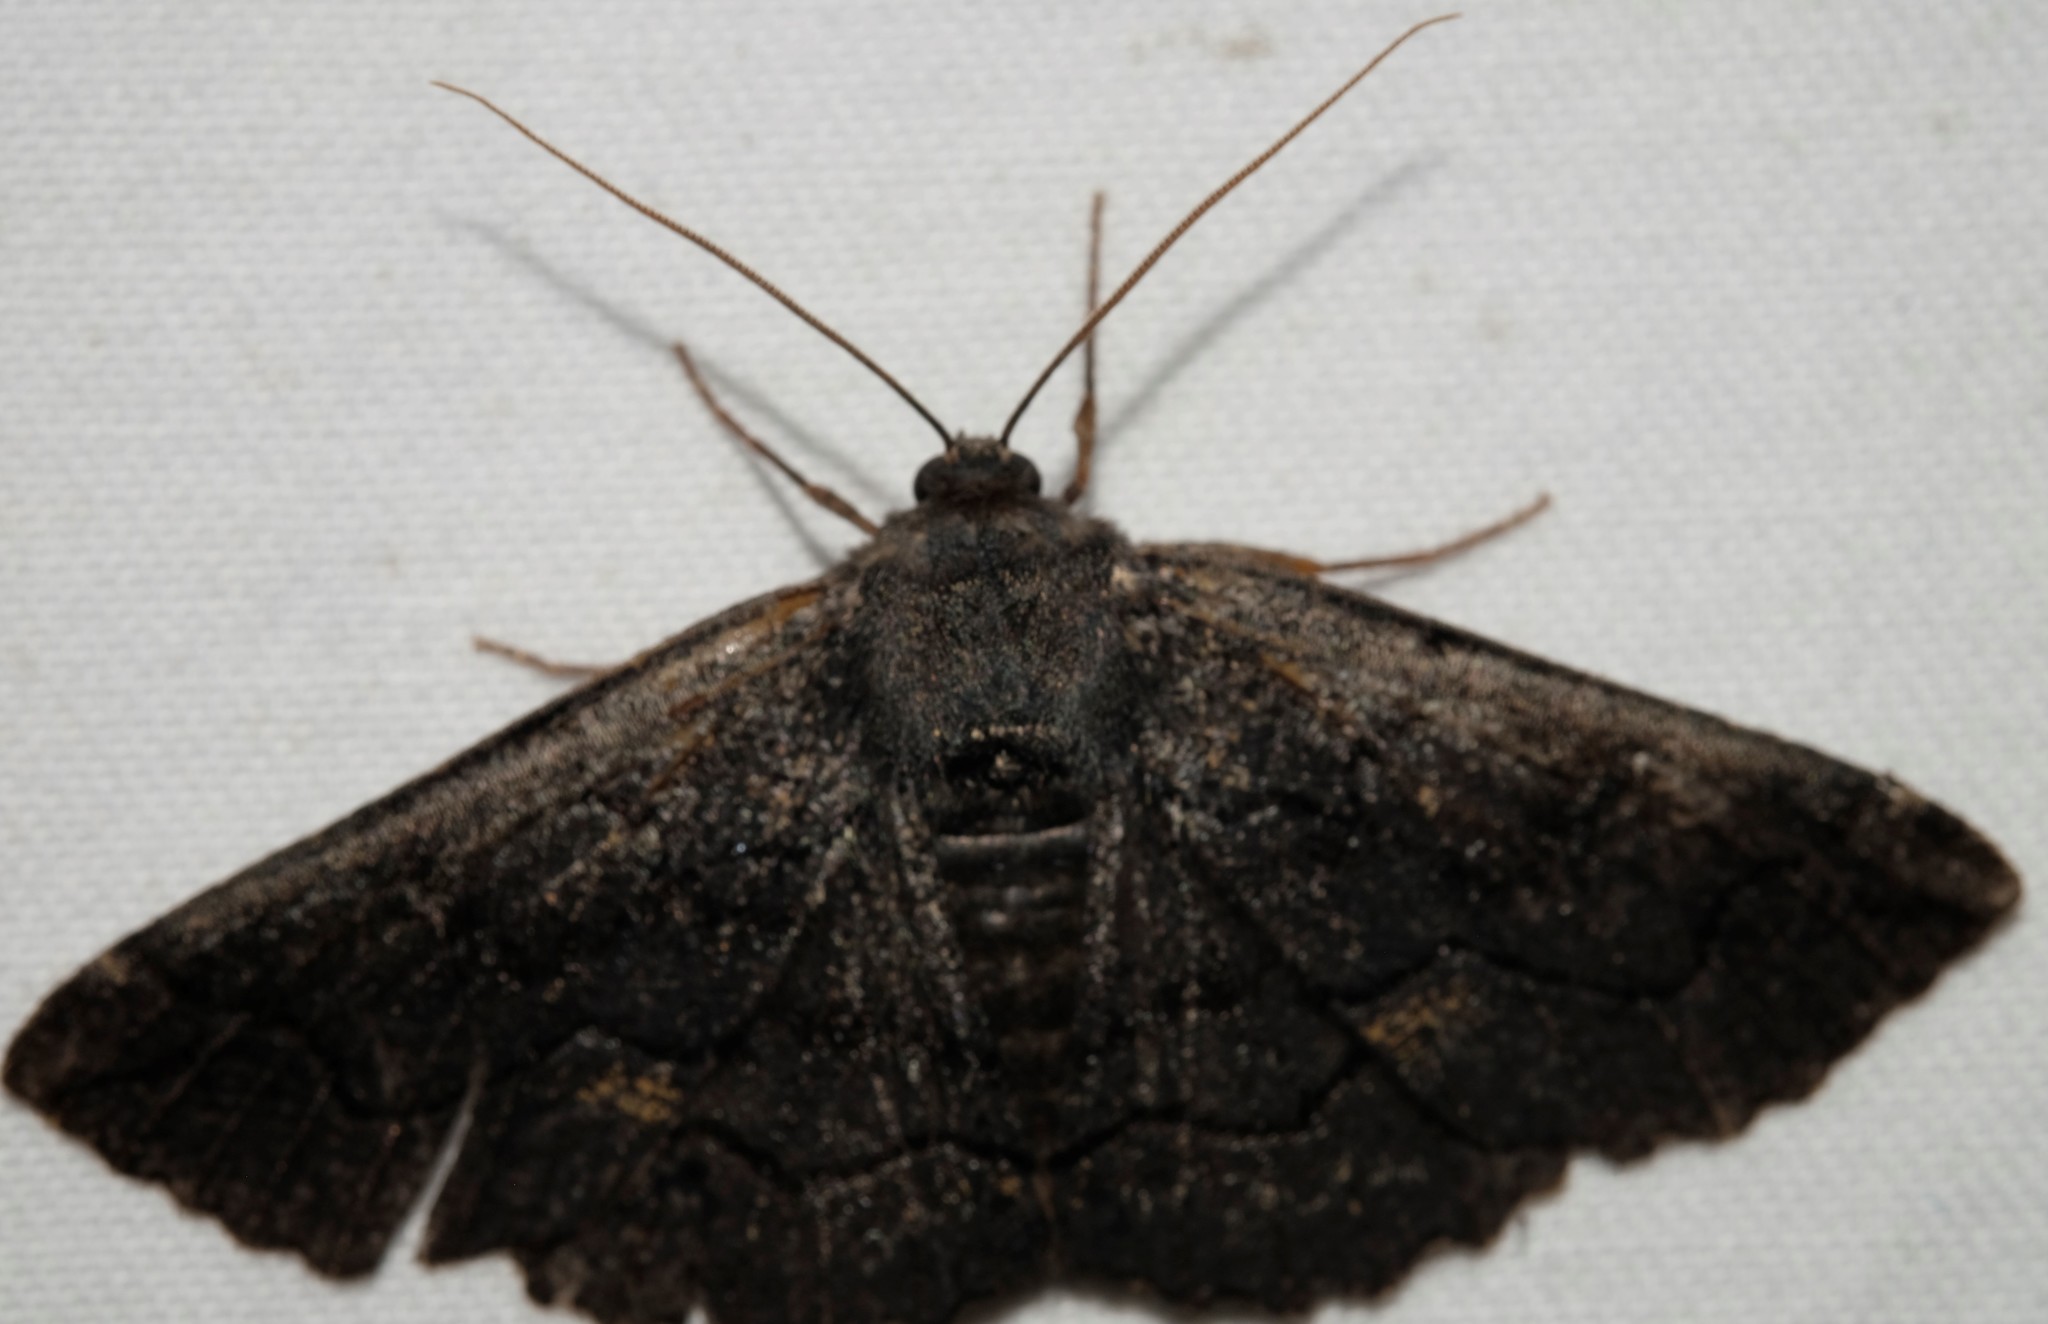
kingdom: Animalia
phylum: Arthropoda
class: Insecta
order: Lepidoptera
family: Geometridae
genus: Melanodes
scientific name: Melanodes anthracitaria
